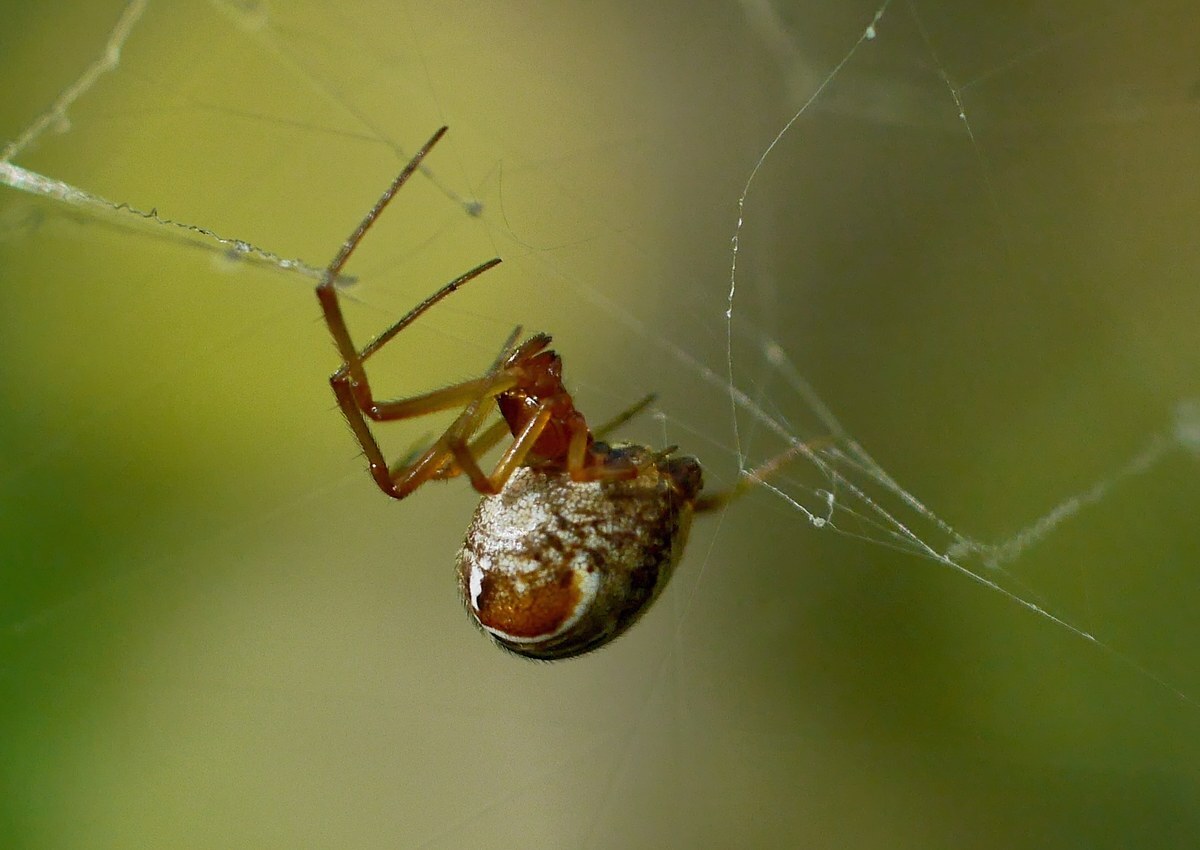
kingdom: Animalia
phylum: Arthropoda
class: Arachnida
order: Araneae
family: Theridiidae
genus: Parasteatoda
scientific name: Parasteatoda lunata
